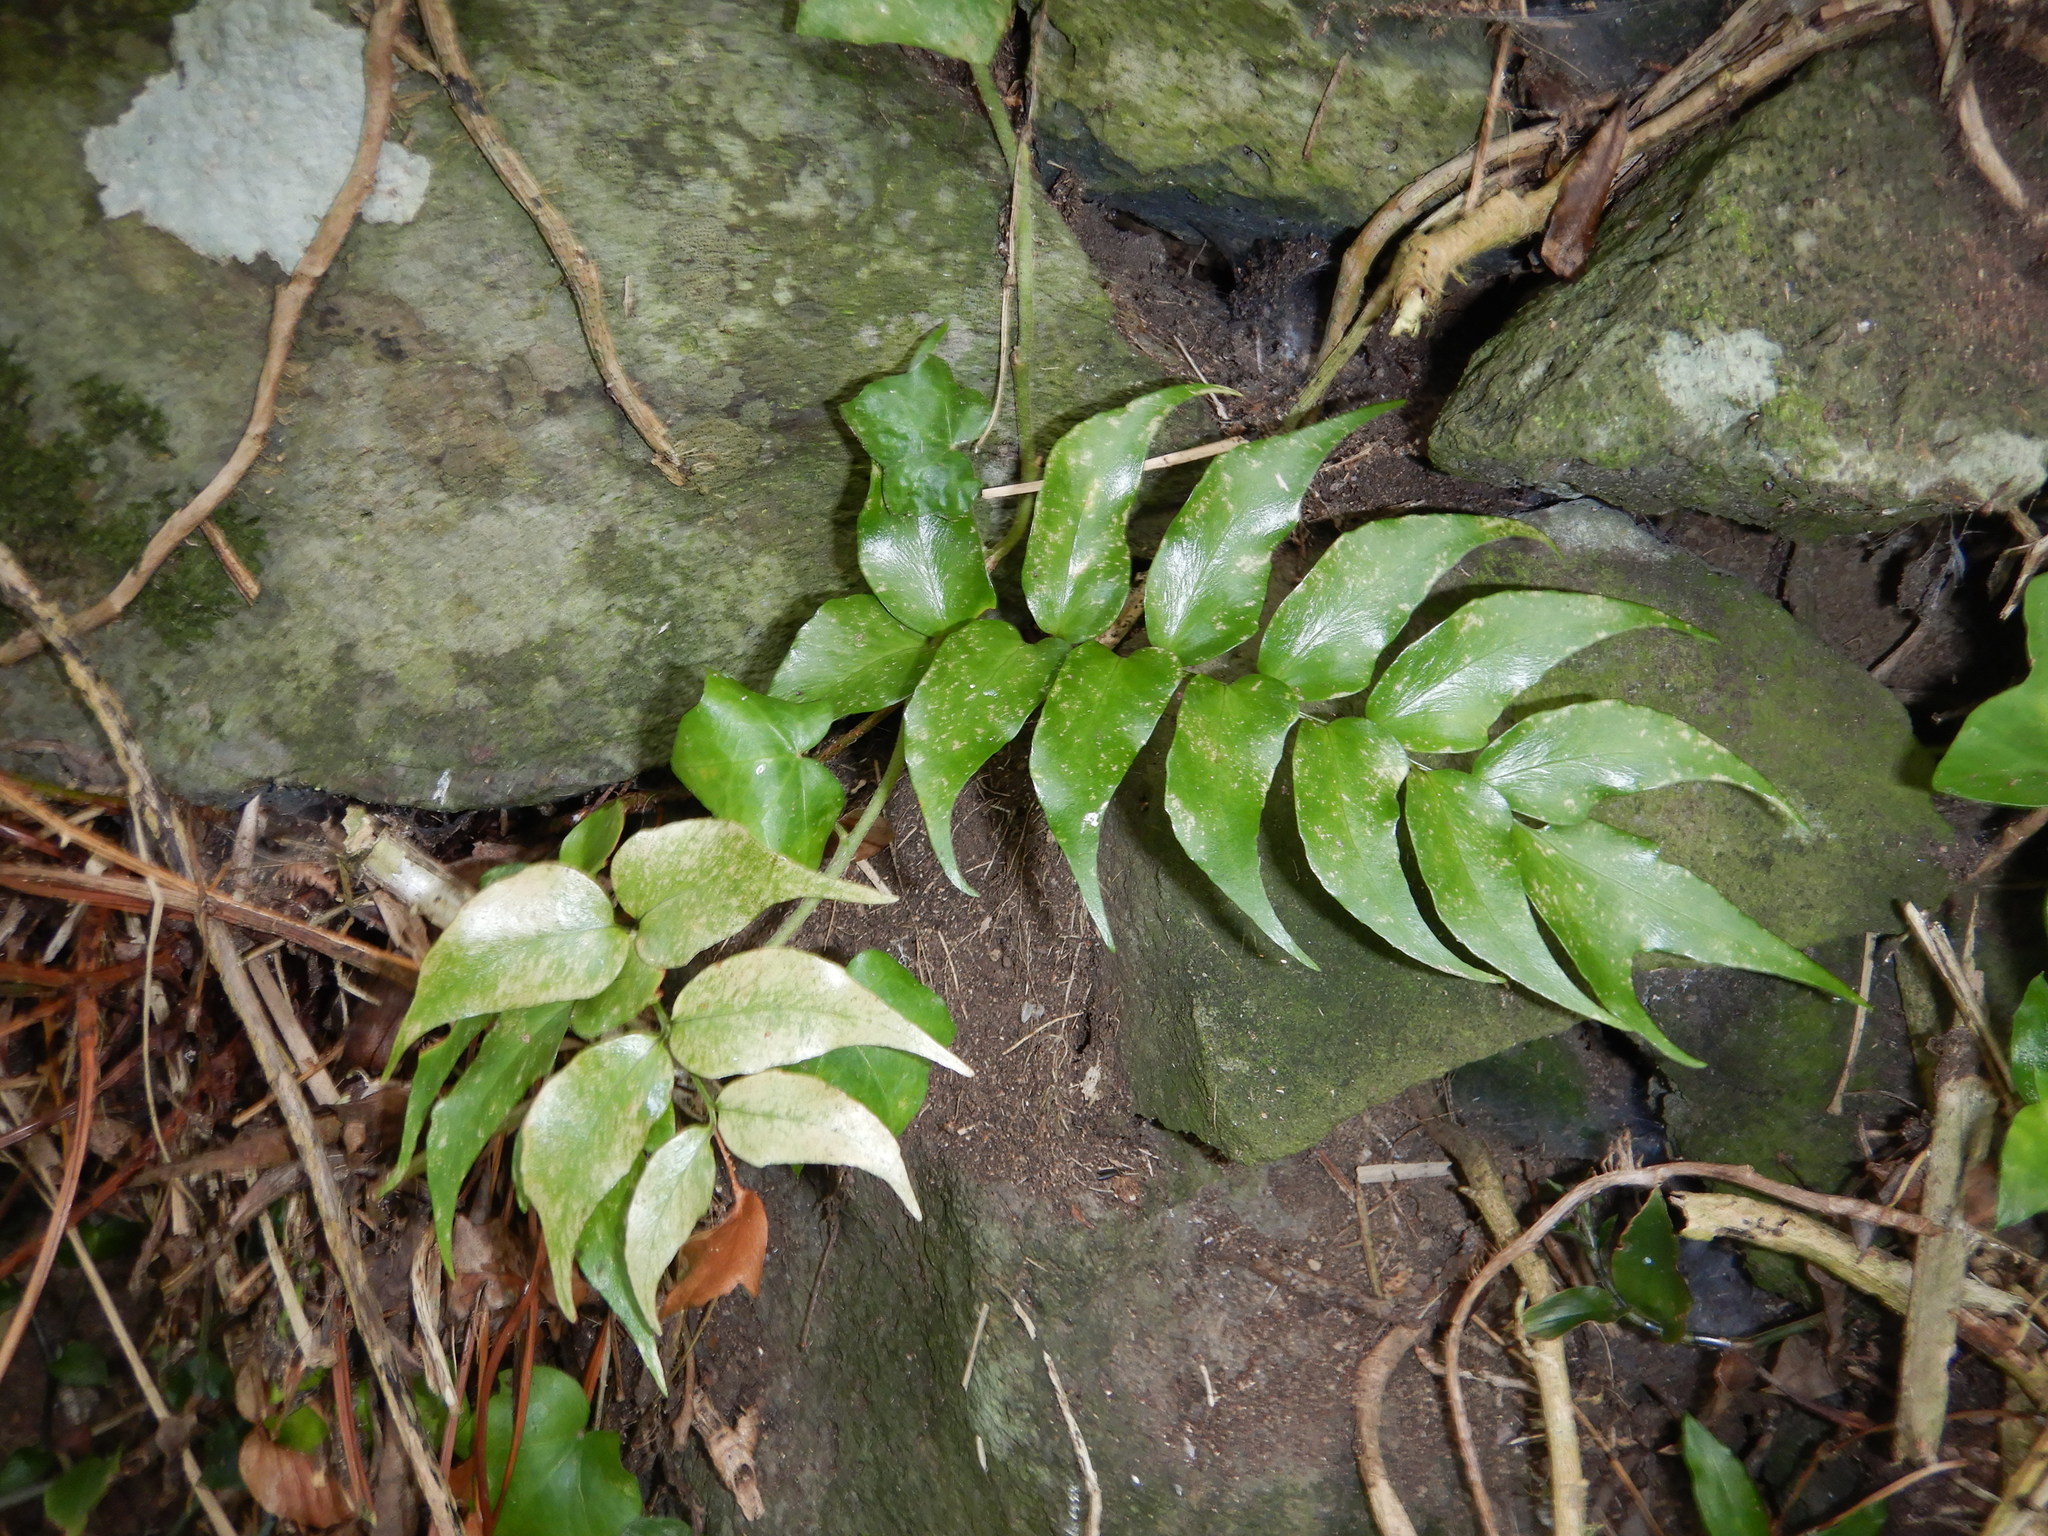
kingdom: Plantae
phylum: Tracheophyta
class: Polypodiopsida
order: Polypodiales
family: Dryopteridaceae
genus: Cyrtomium
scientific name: Cyrtomium falcatum
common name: House holly-fern
